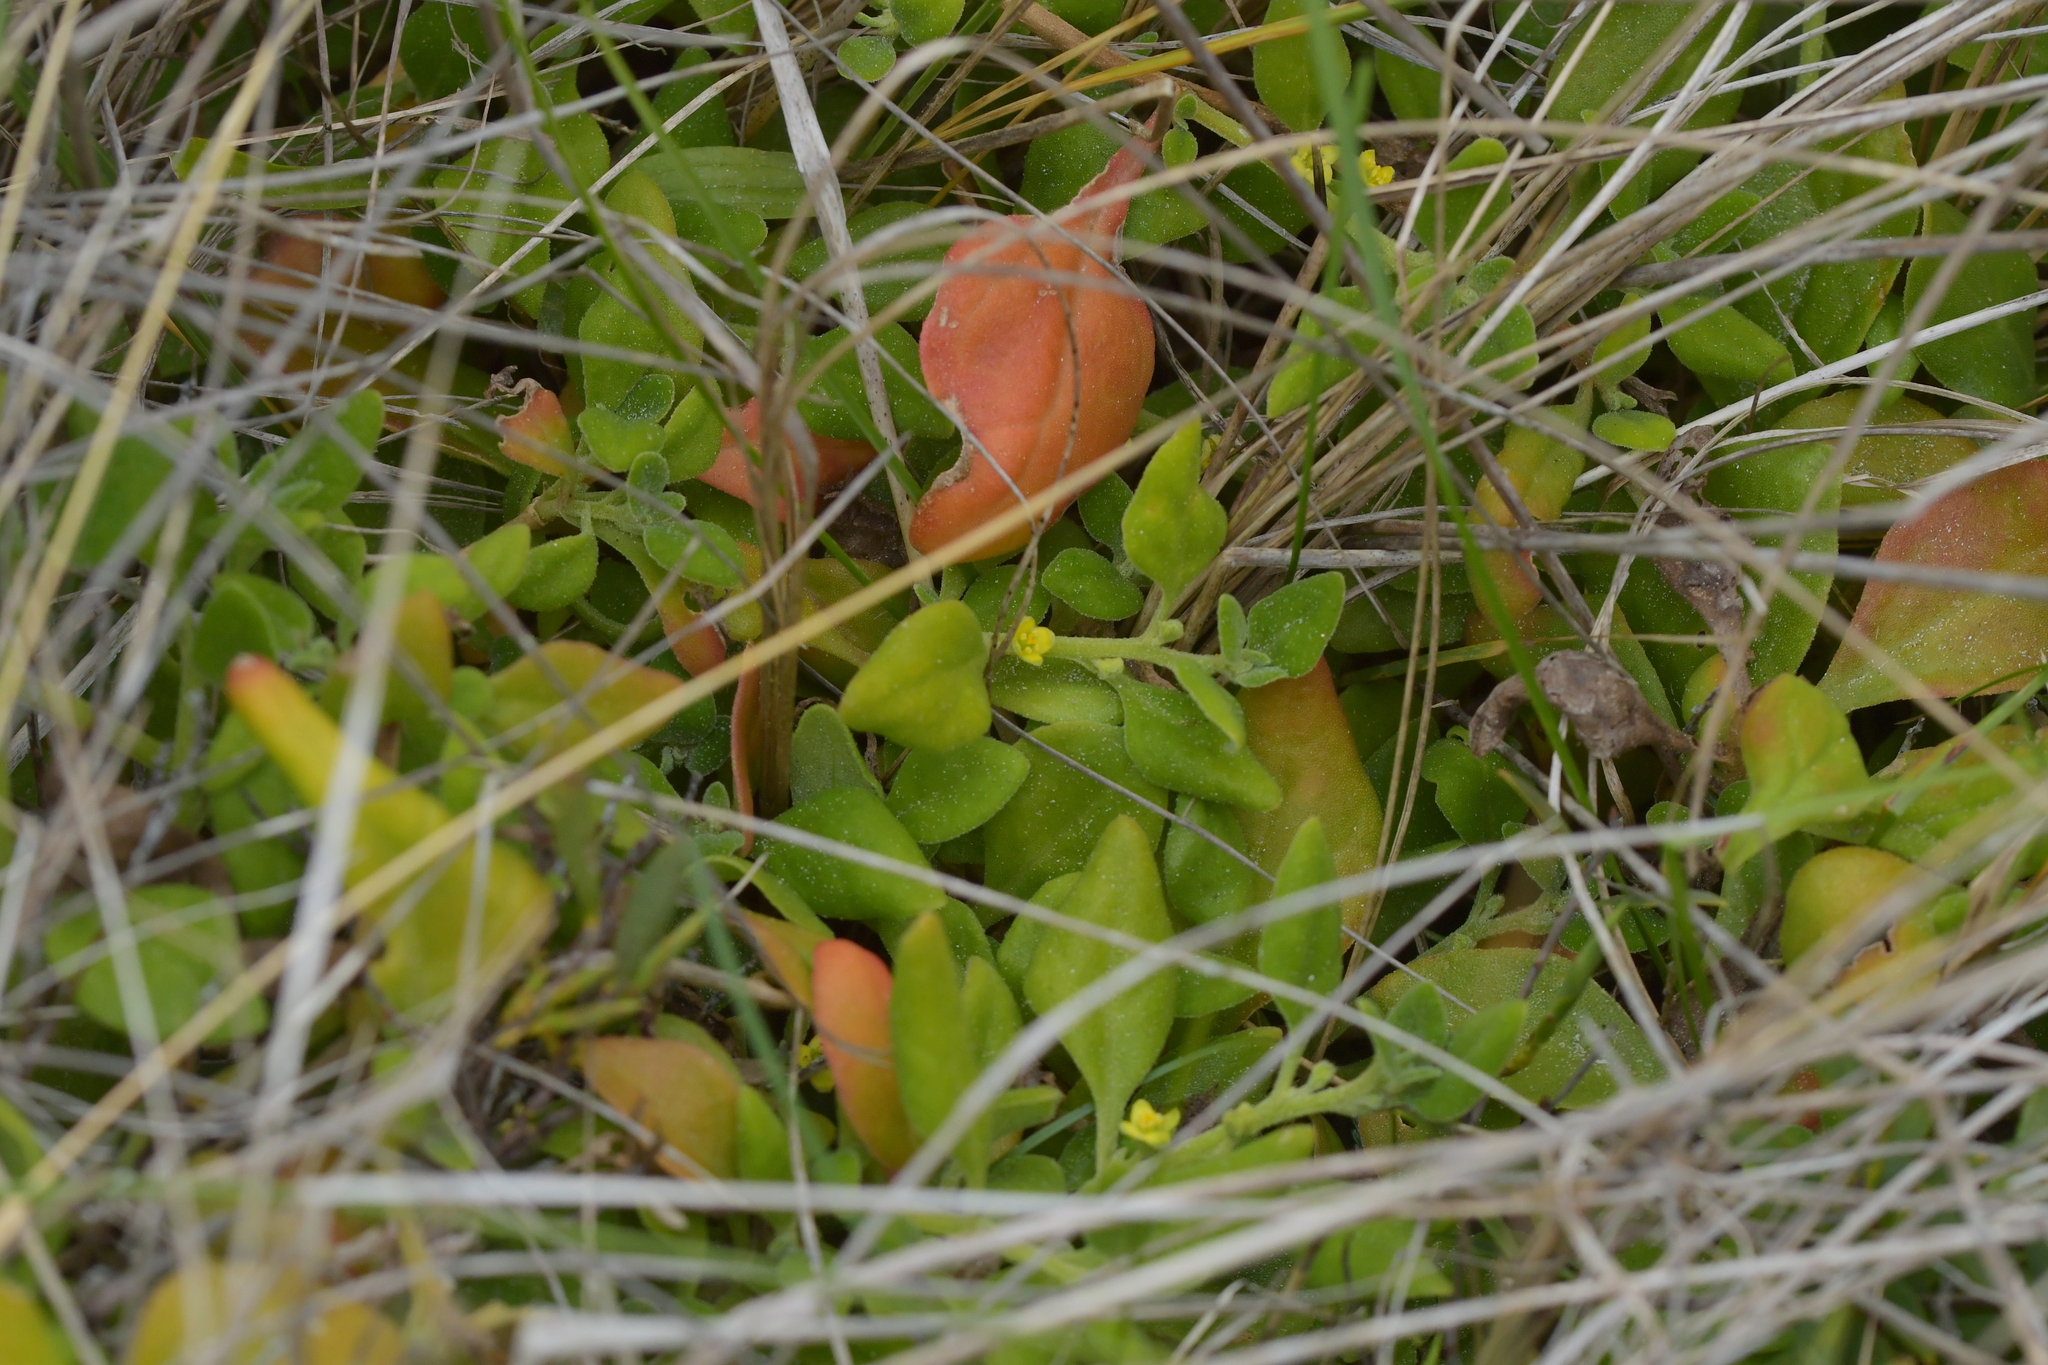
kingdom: Plantae
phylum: Tracheophyta
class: Magnoliopsida
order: Caryophyllales
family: Aizoaceae
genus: Tetragonia
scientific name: Tetragonia implexicoma
